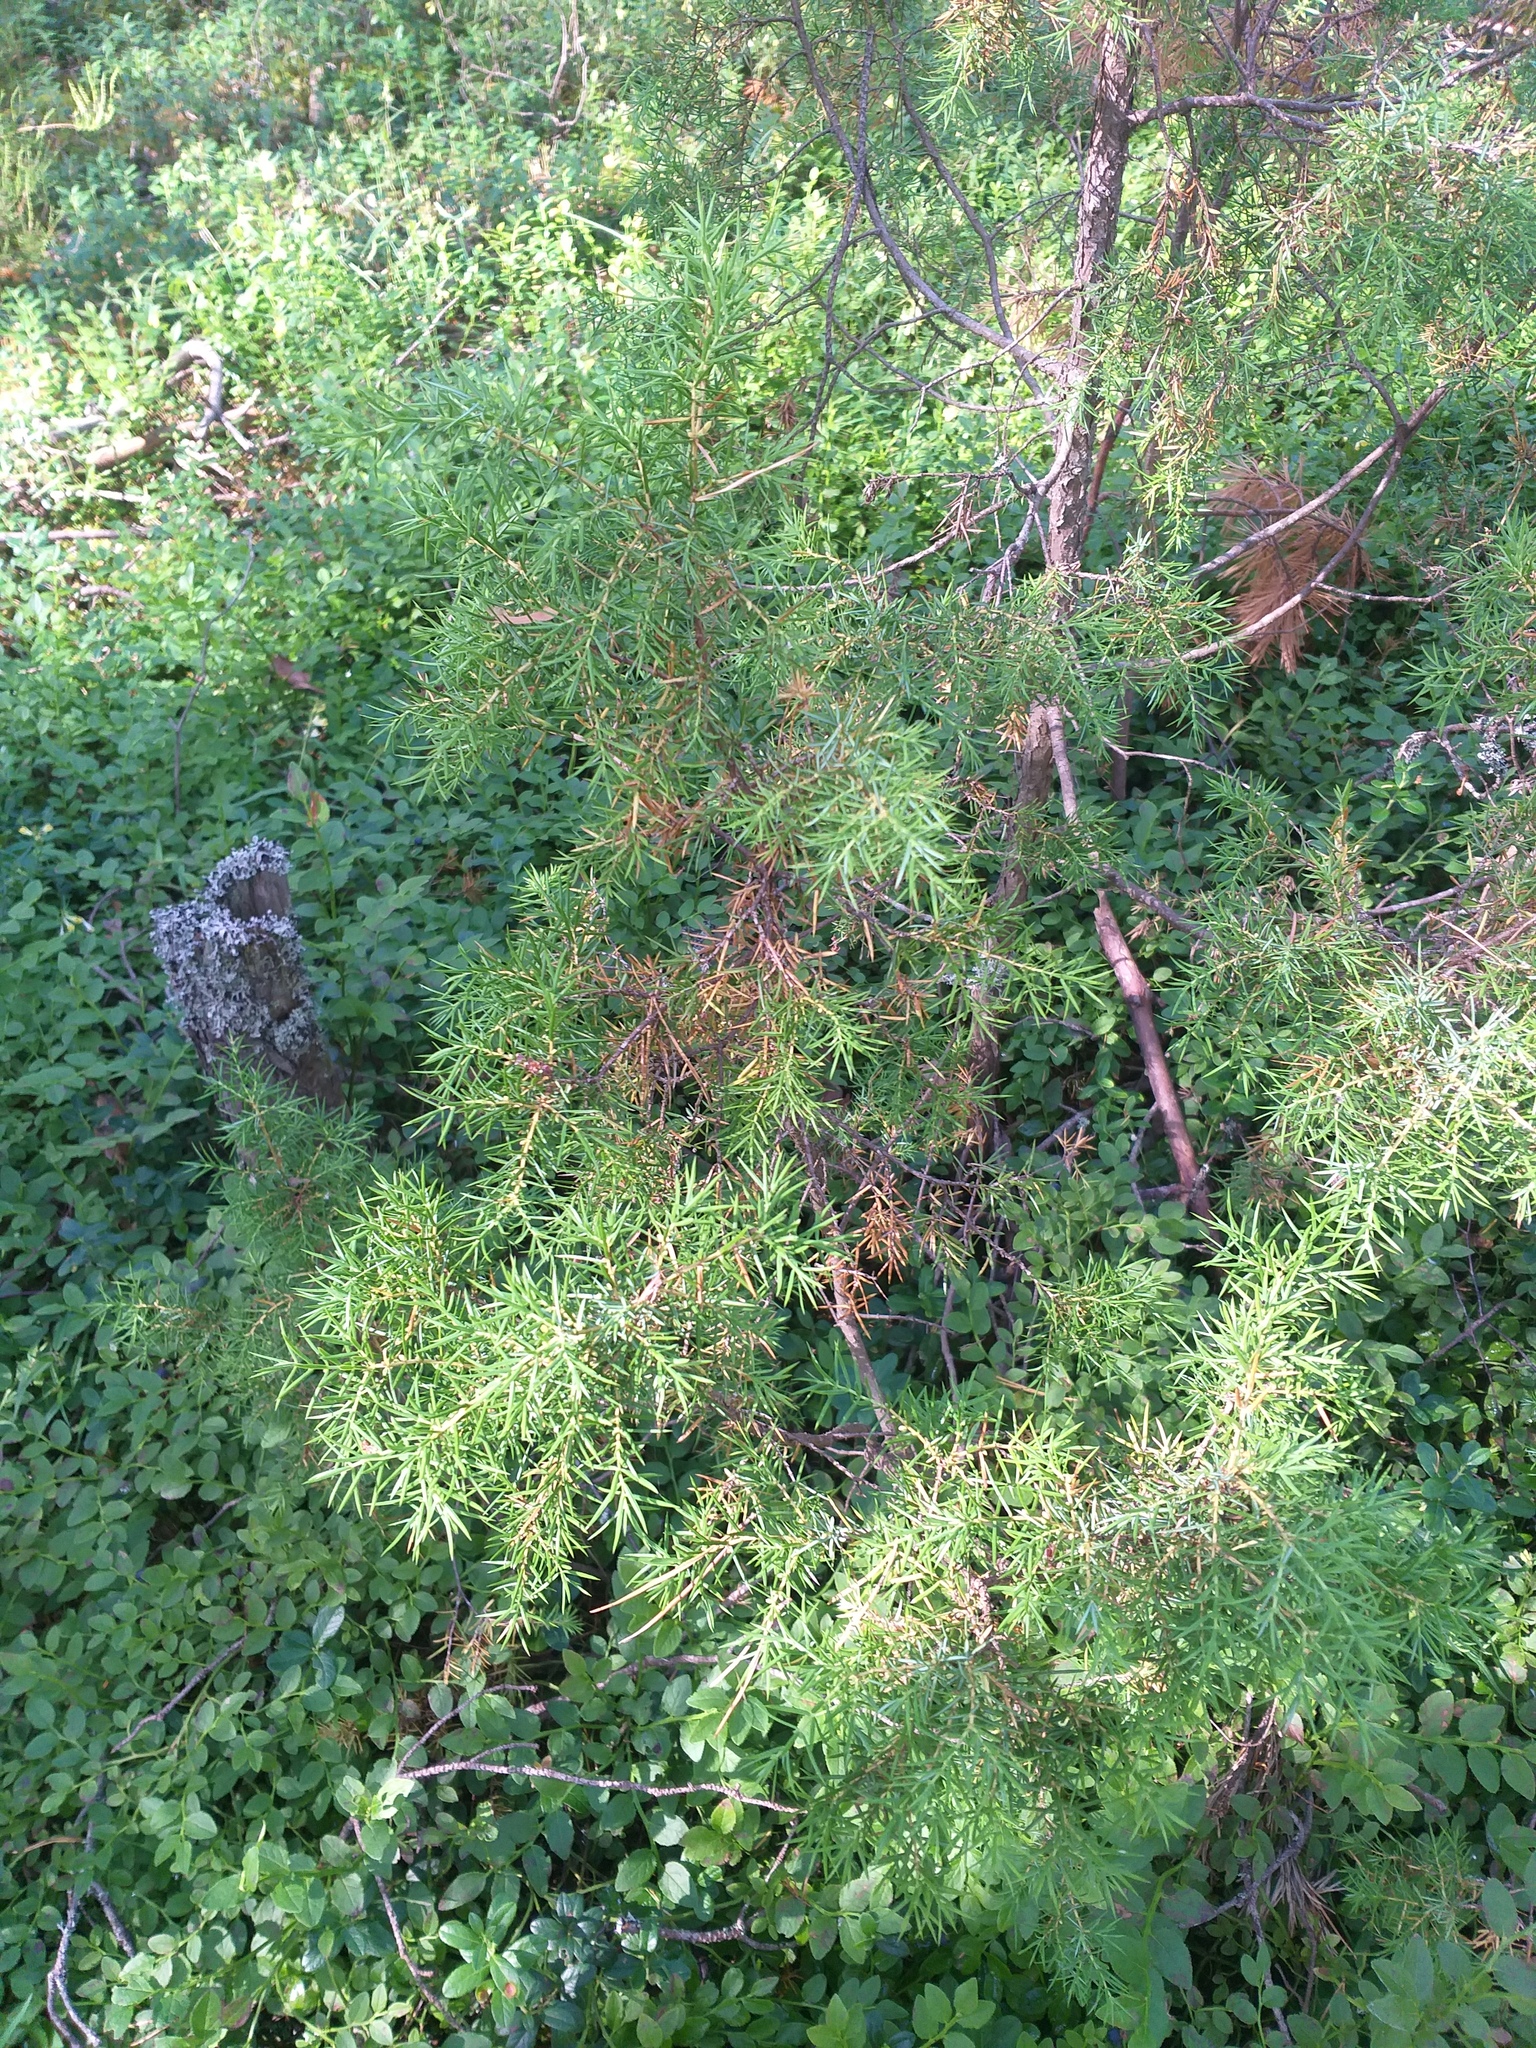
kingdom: Plantae
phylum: Tracheophyta
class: Pinopsida
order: Pinales
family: Cupressaceae
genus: Juniperus
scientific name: Juniperus communis
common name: Common juniper
